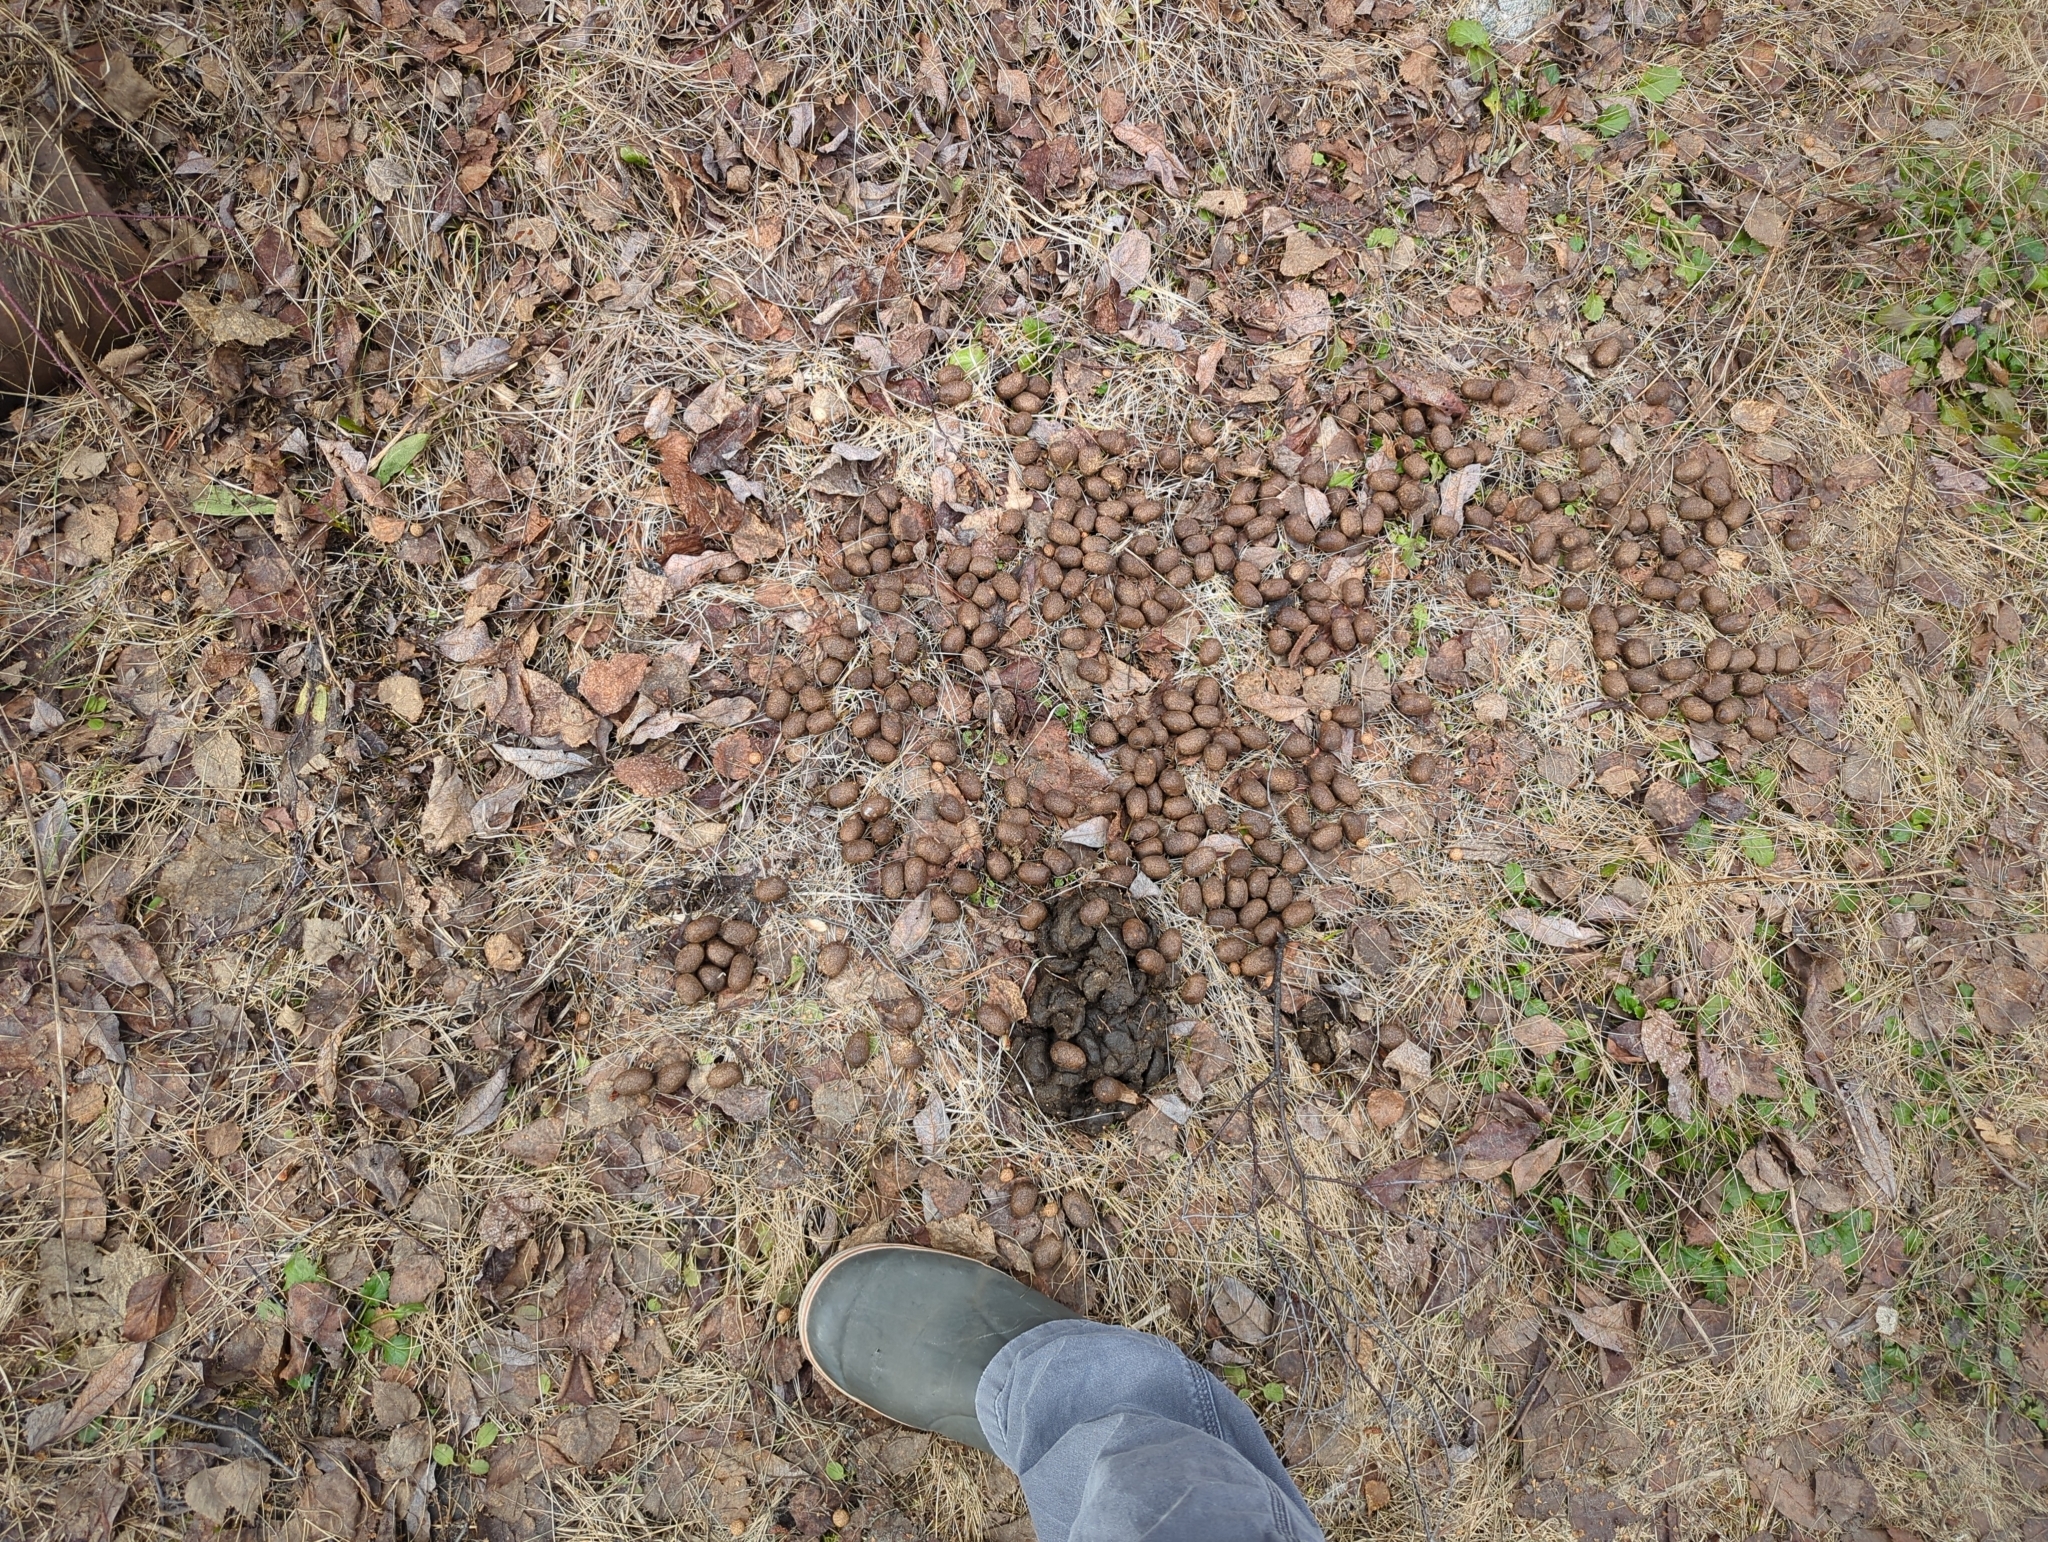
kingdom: Animalia
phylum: Chordata
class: Mammalia
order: Artiodactyla
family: Cervidae
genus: Alces
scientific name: Alces alces
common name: Moose
